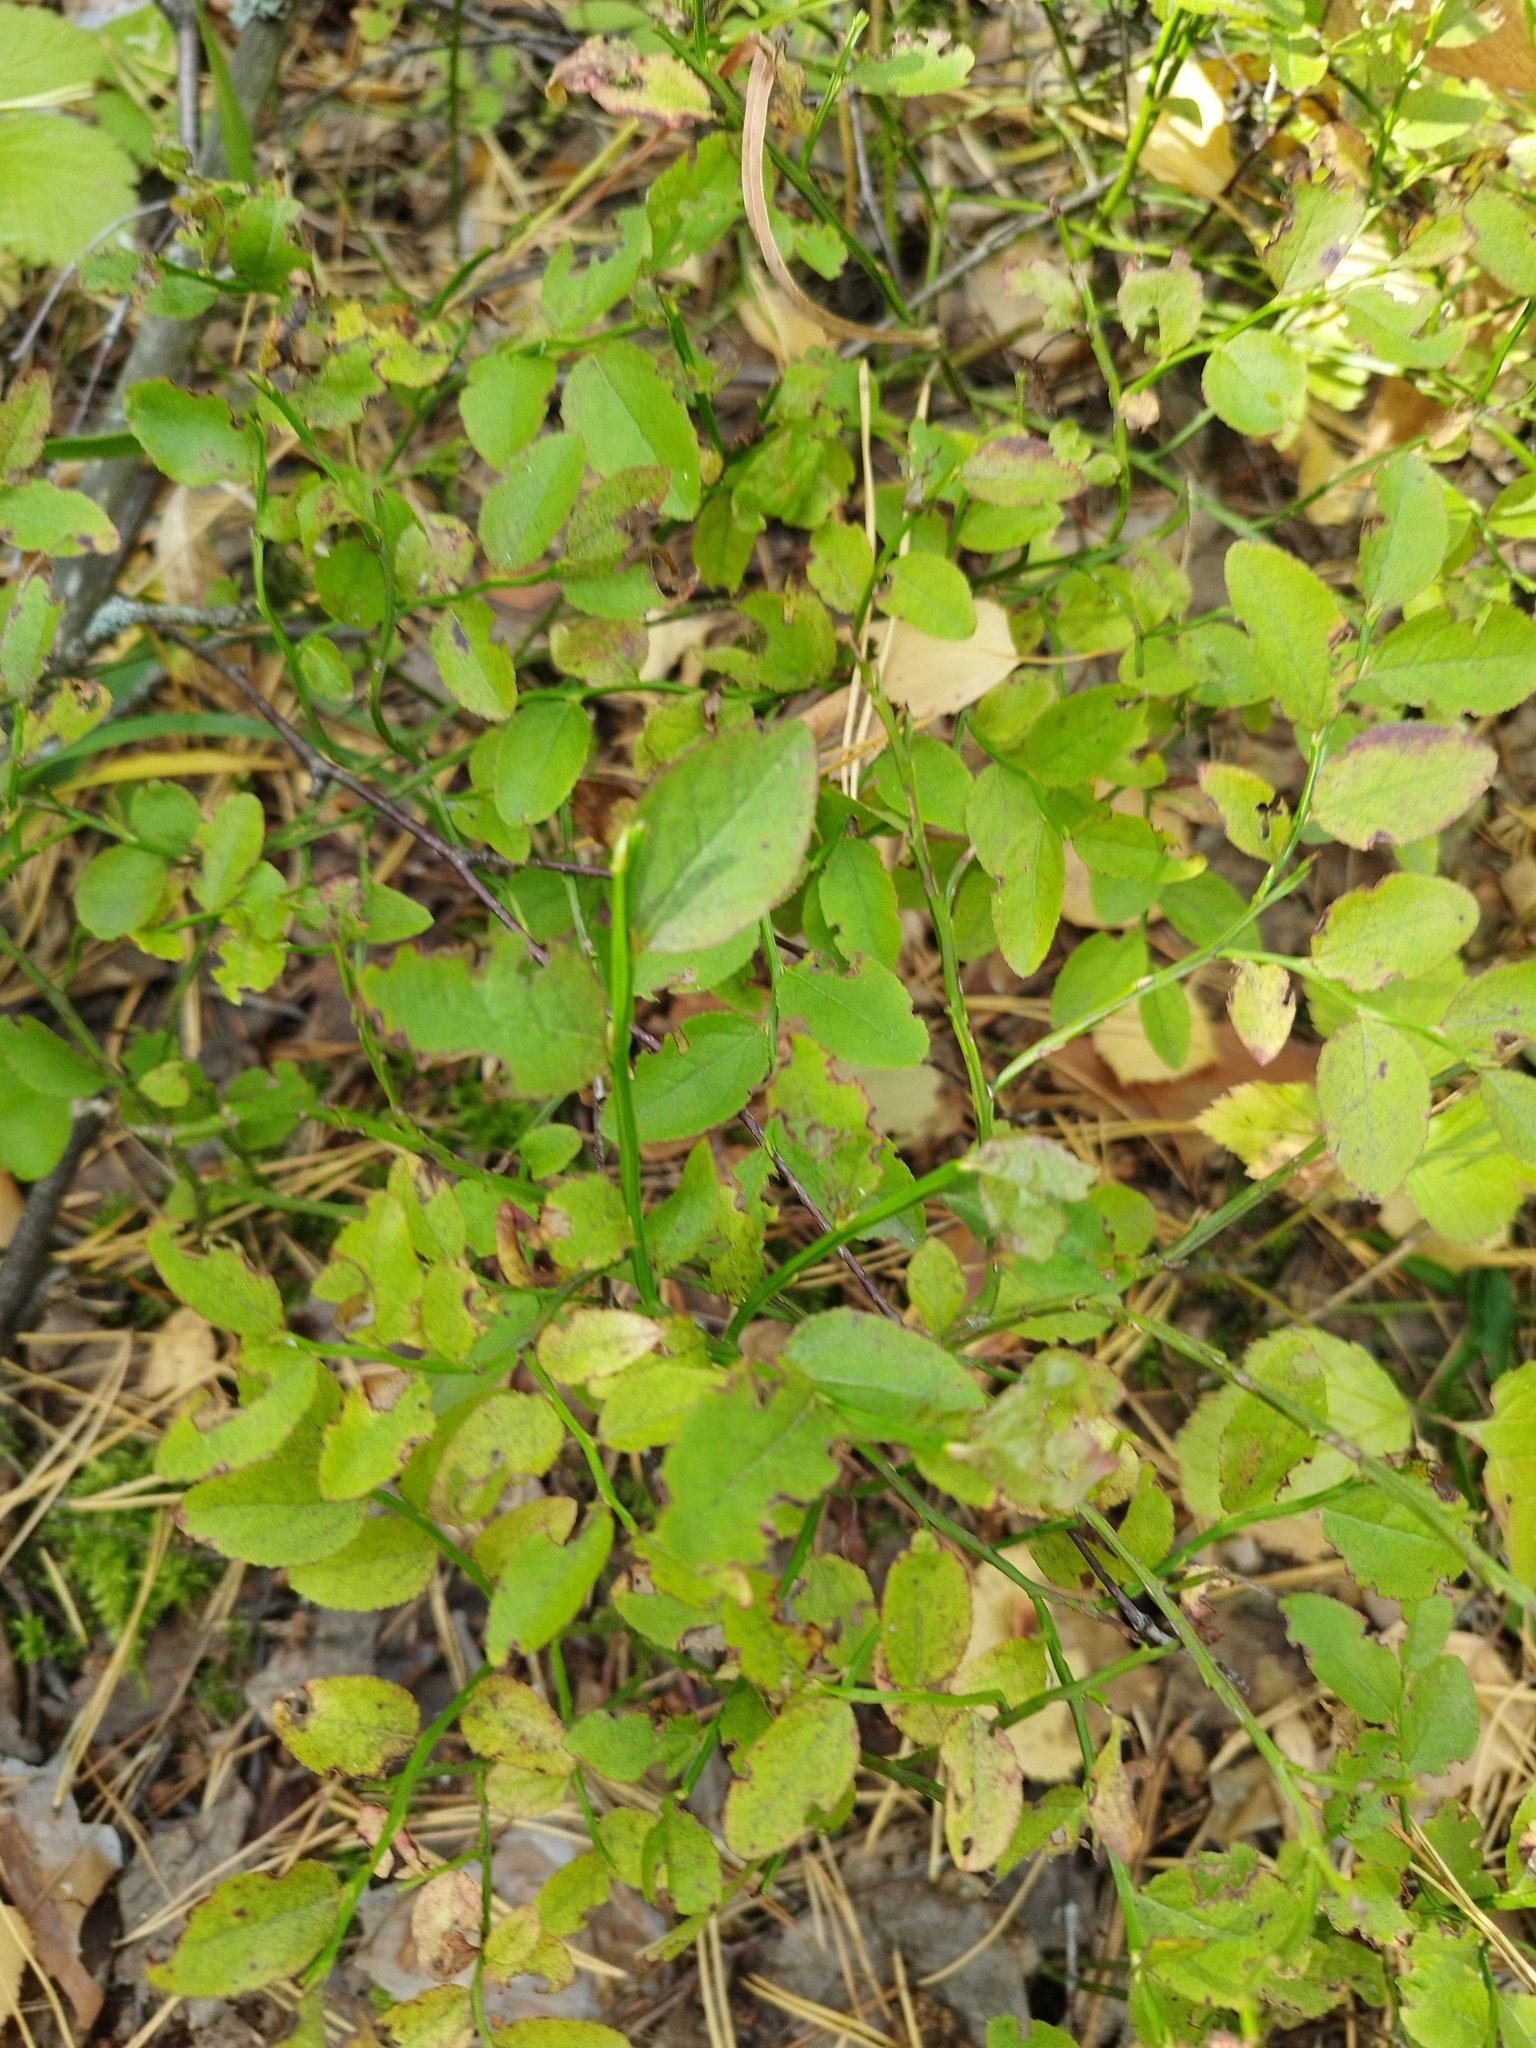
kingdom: Plantae
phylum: Tracheophyta
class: Magnoliopsida
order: Ericales
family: Ericaceae
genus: Vaccinium
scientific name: Vaccinium myrtillus
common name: Bilberry
